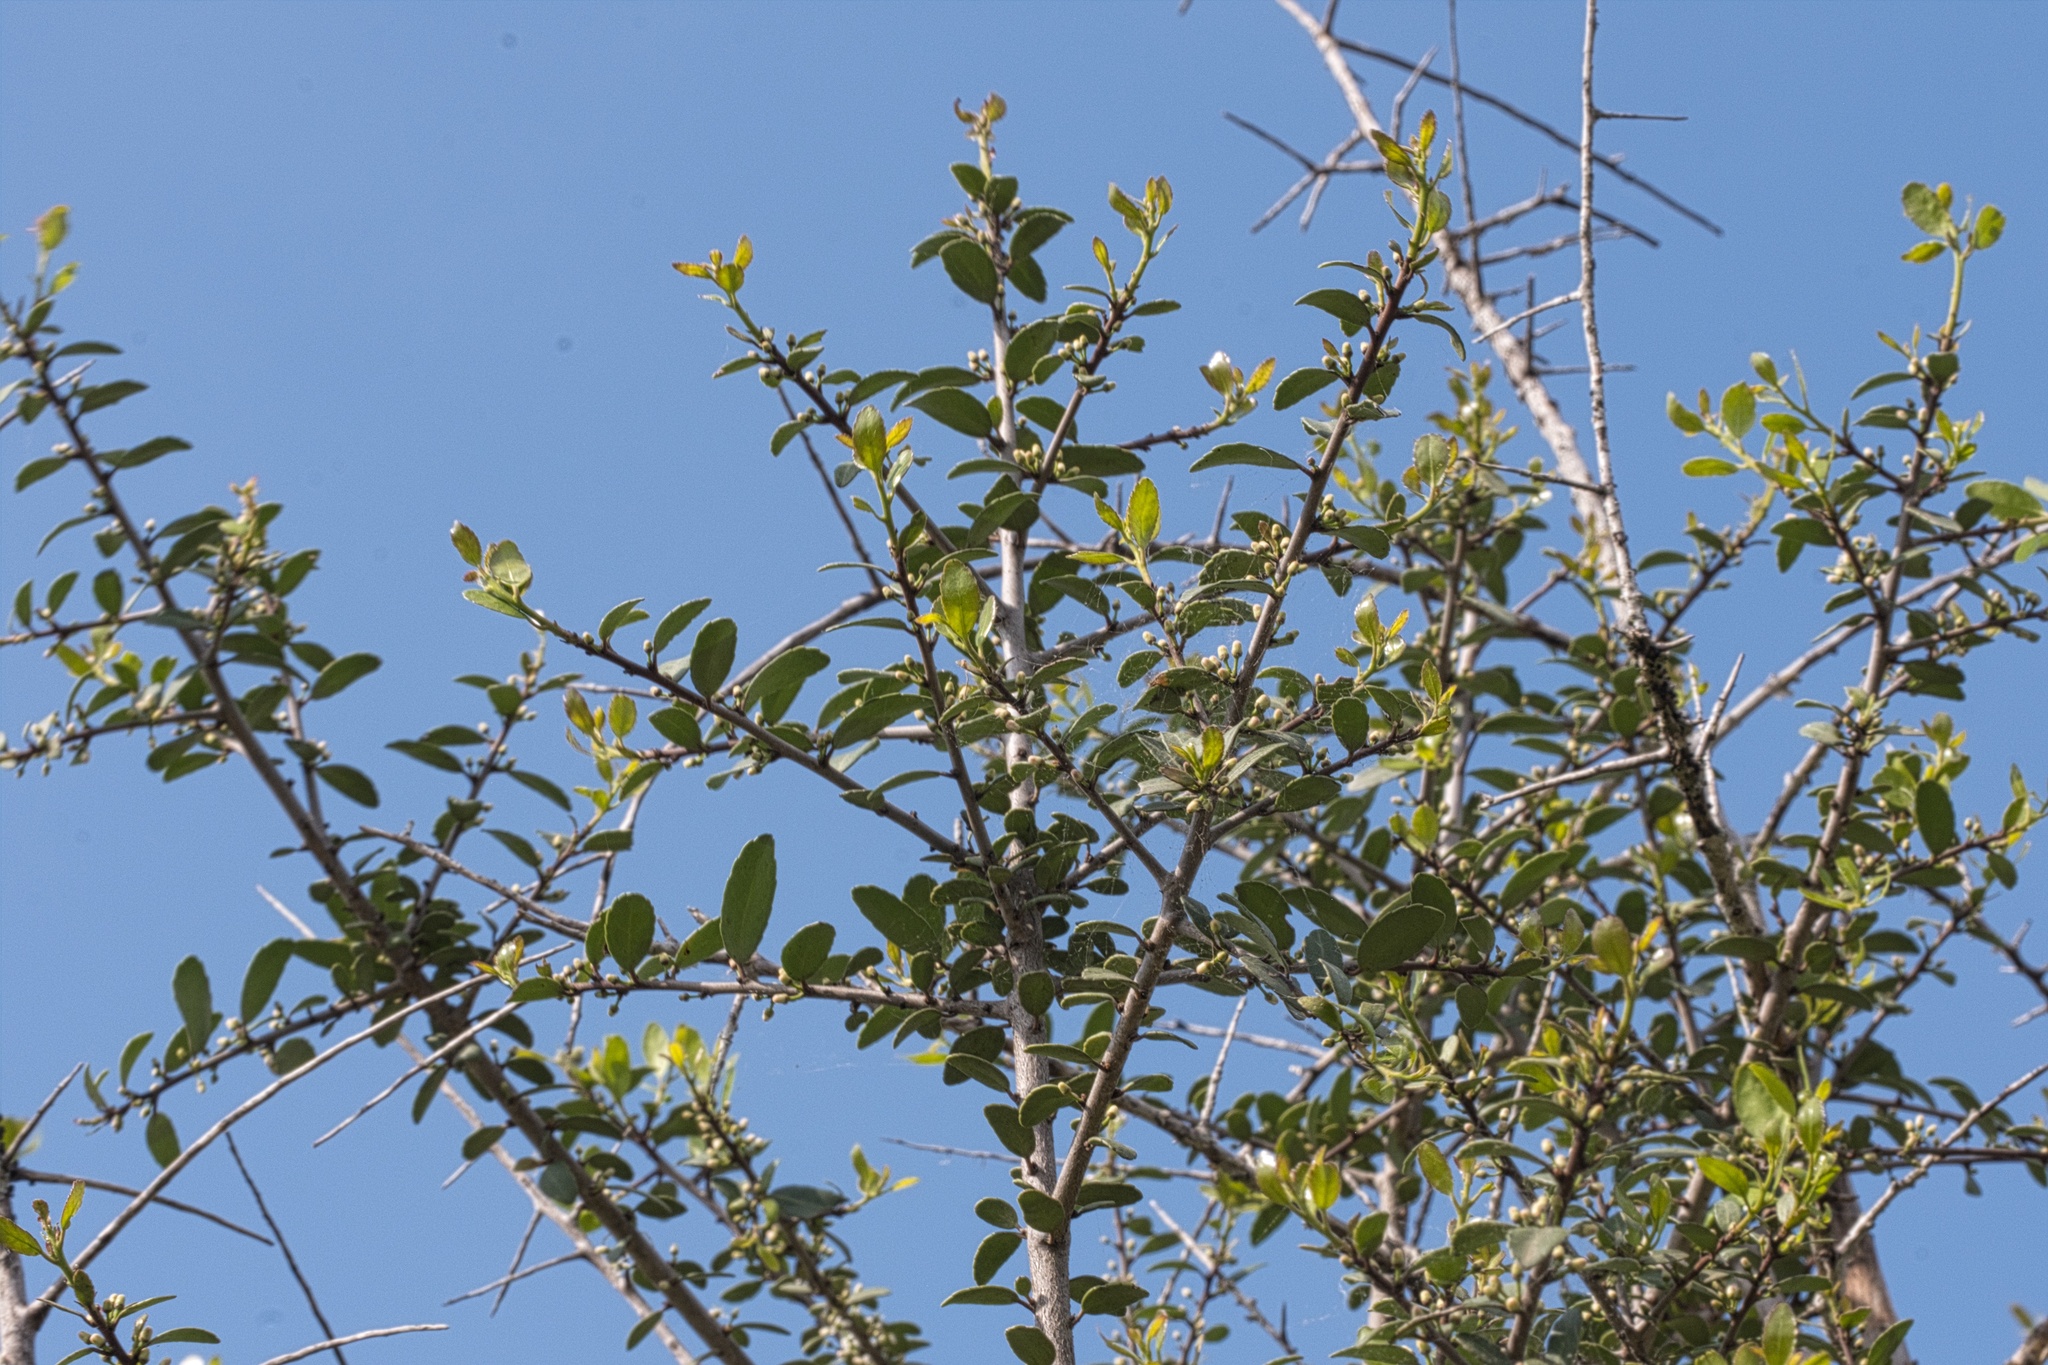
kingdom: Plantae
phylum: Tracheophyta
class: Magnoliopsida
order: Aquifoliales
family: Aquifoliaceae
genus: Ilex
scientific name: Ilex vomitoria
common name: Yaupon holly
